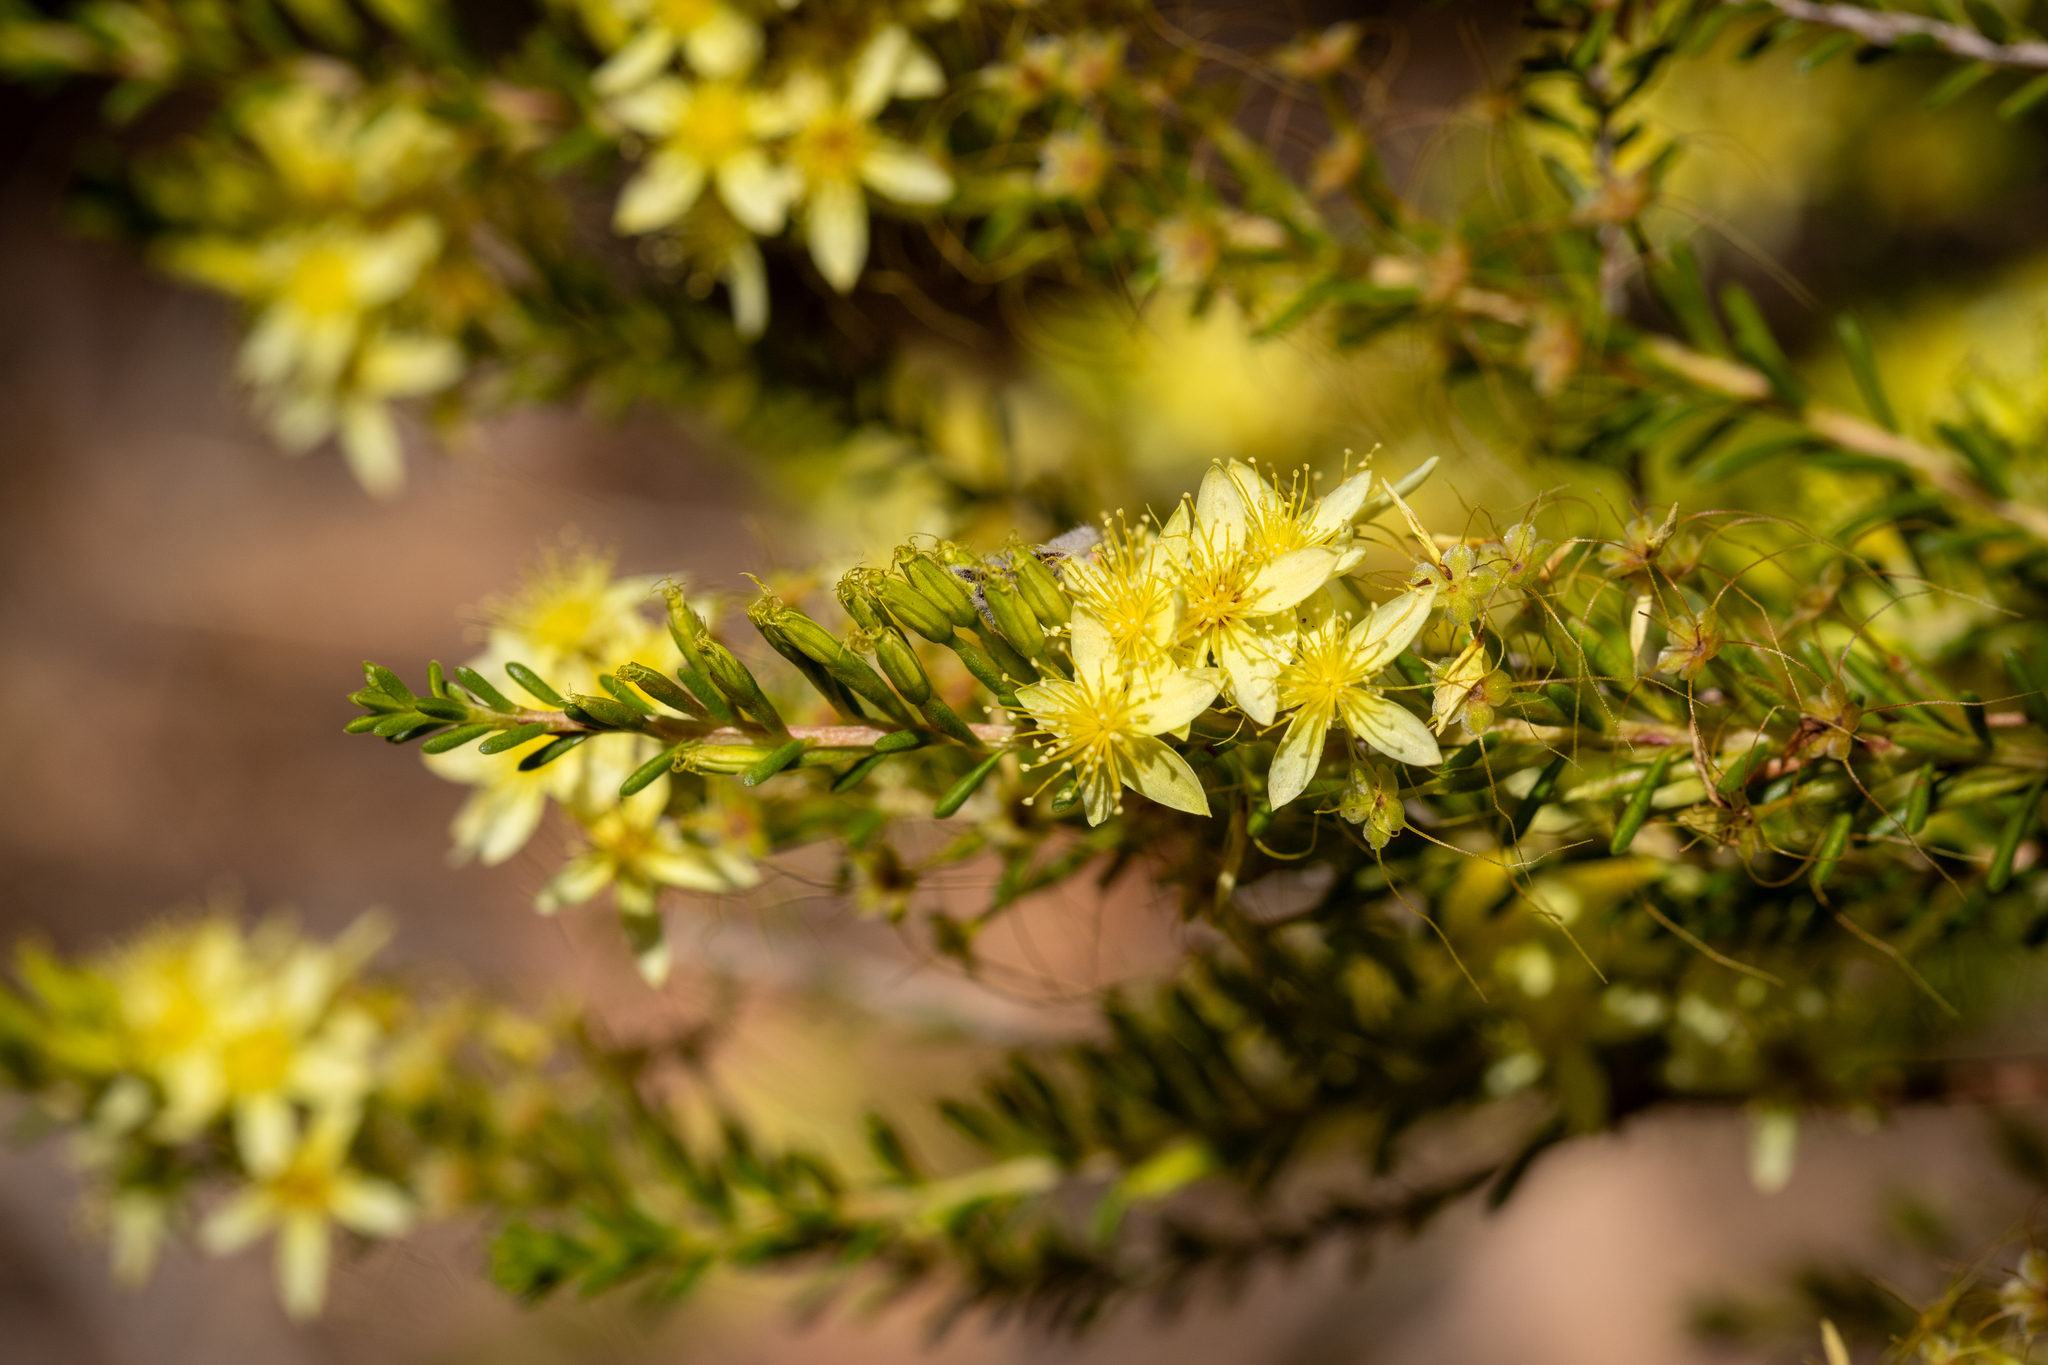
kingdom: Plantae
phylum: Tracheophyta
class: Magnoliopsida
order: Myrtales
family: Myrtaceae
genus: Calytrix
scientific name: Calytrix flavescens
